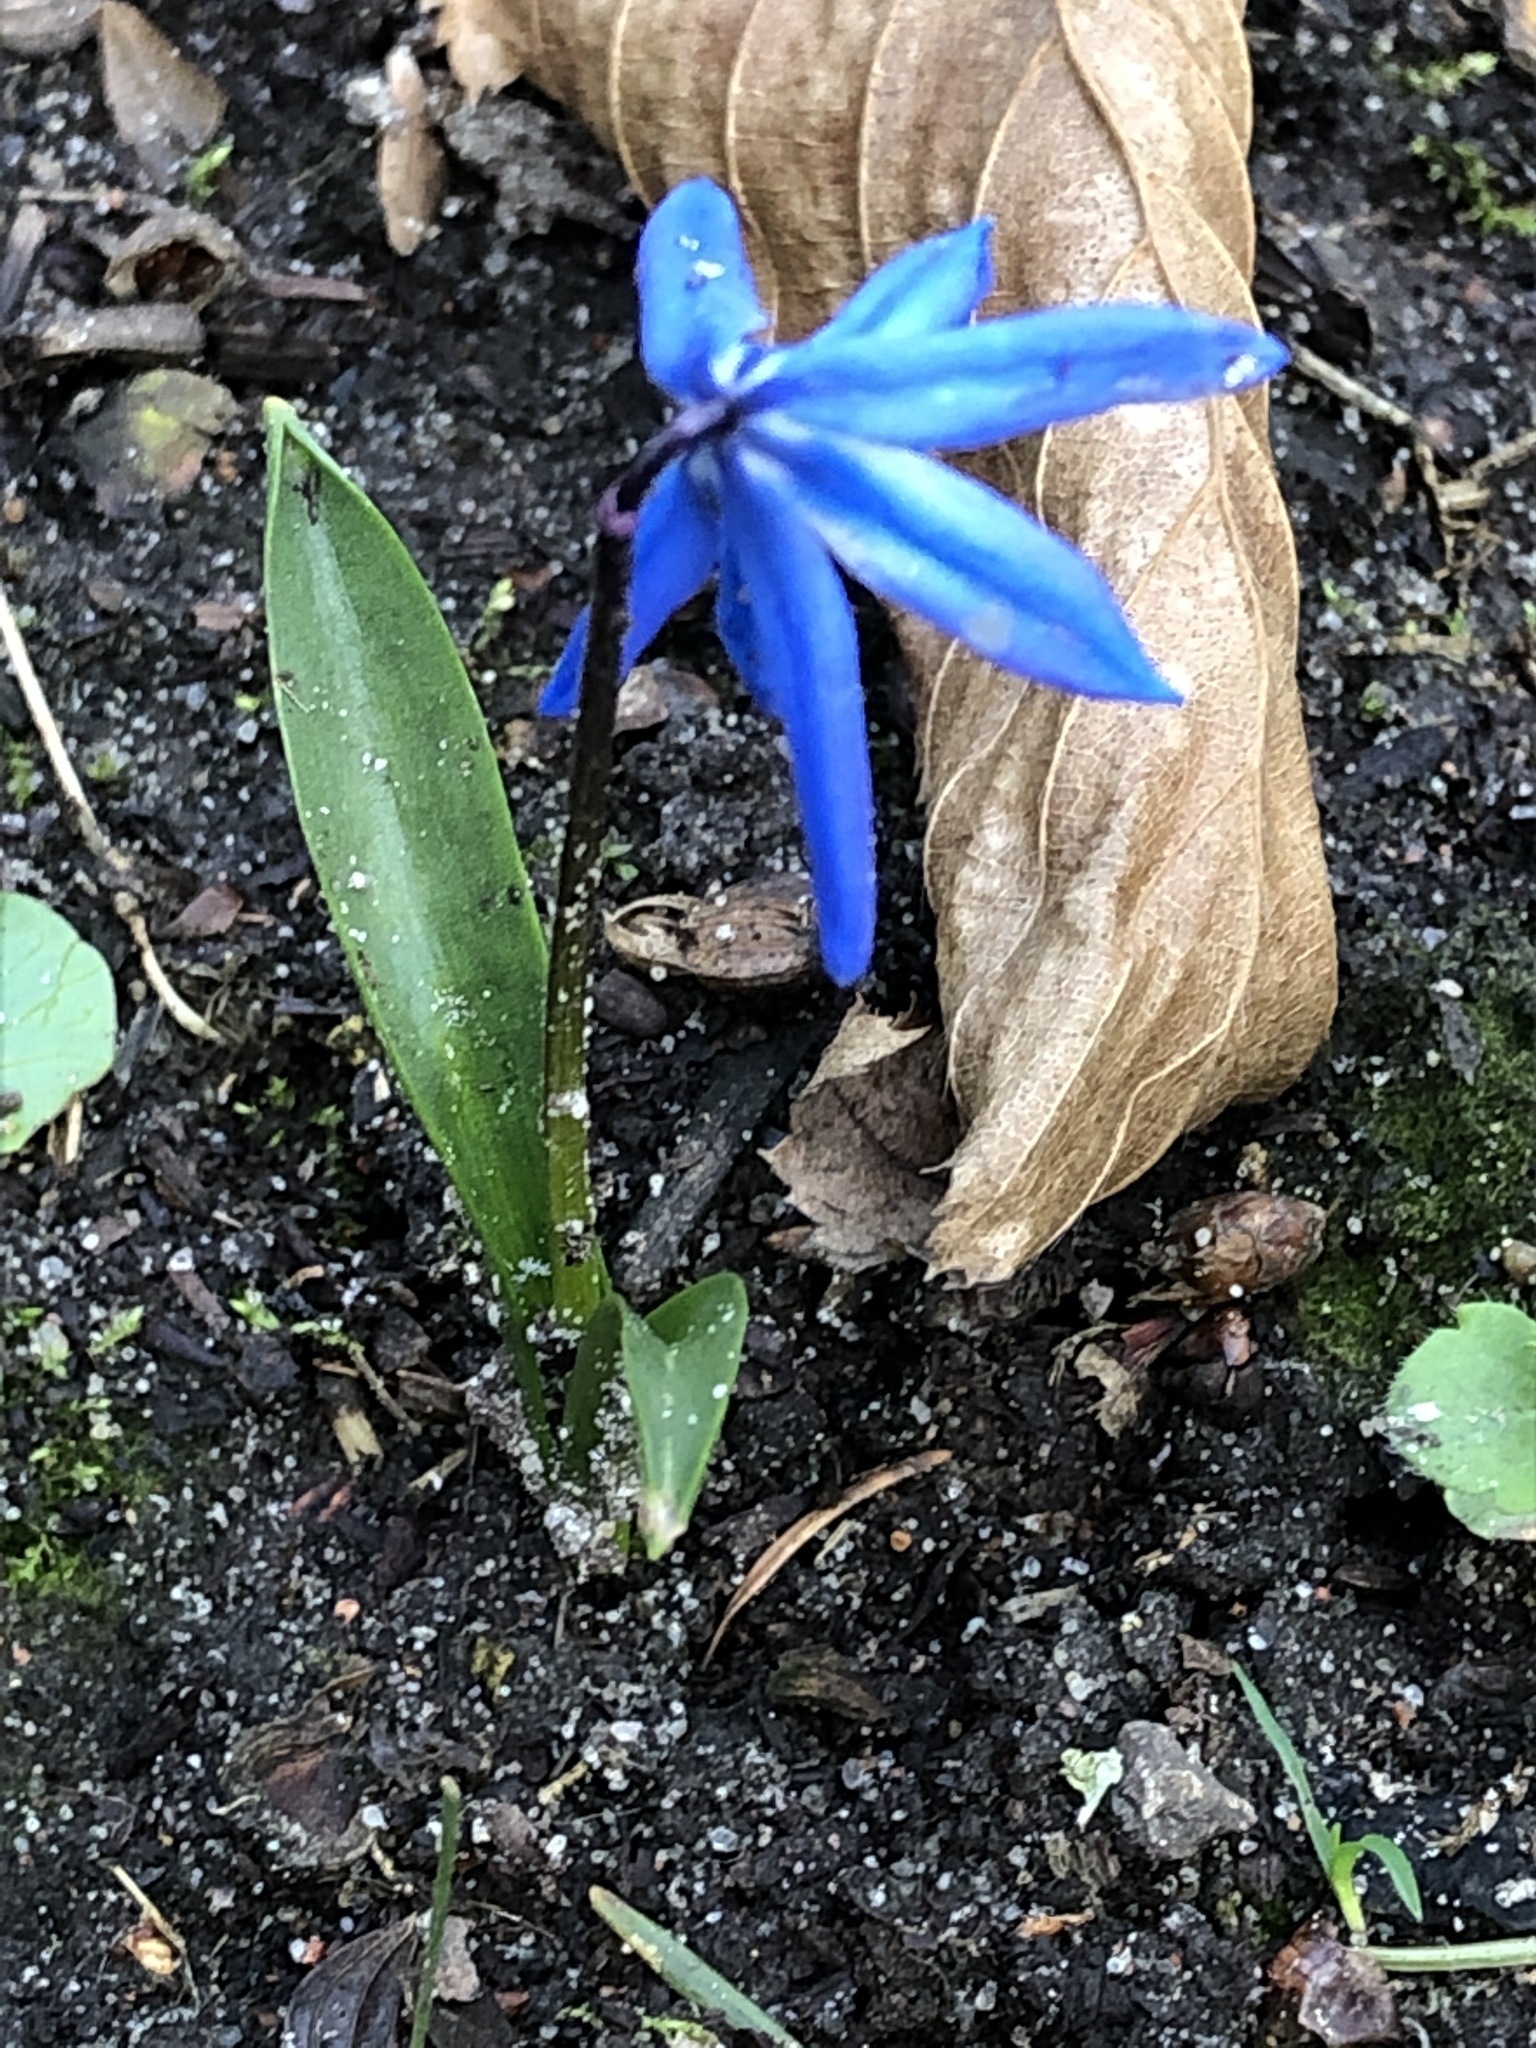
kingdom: Plantae
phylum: Tracheophyta
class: Liliopsida
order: Asparagales
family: Asparagaceae
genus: Scilla
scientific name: Scilla siberica
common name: Siberian squill
